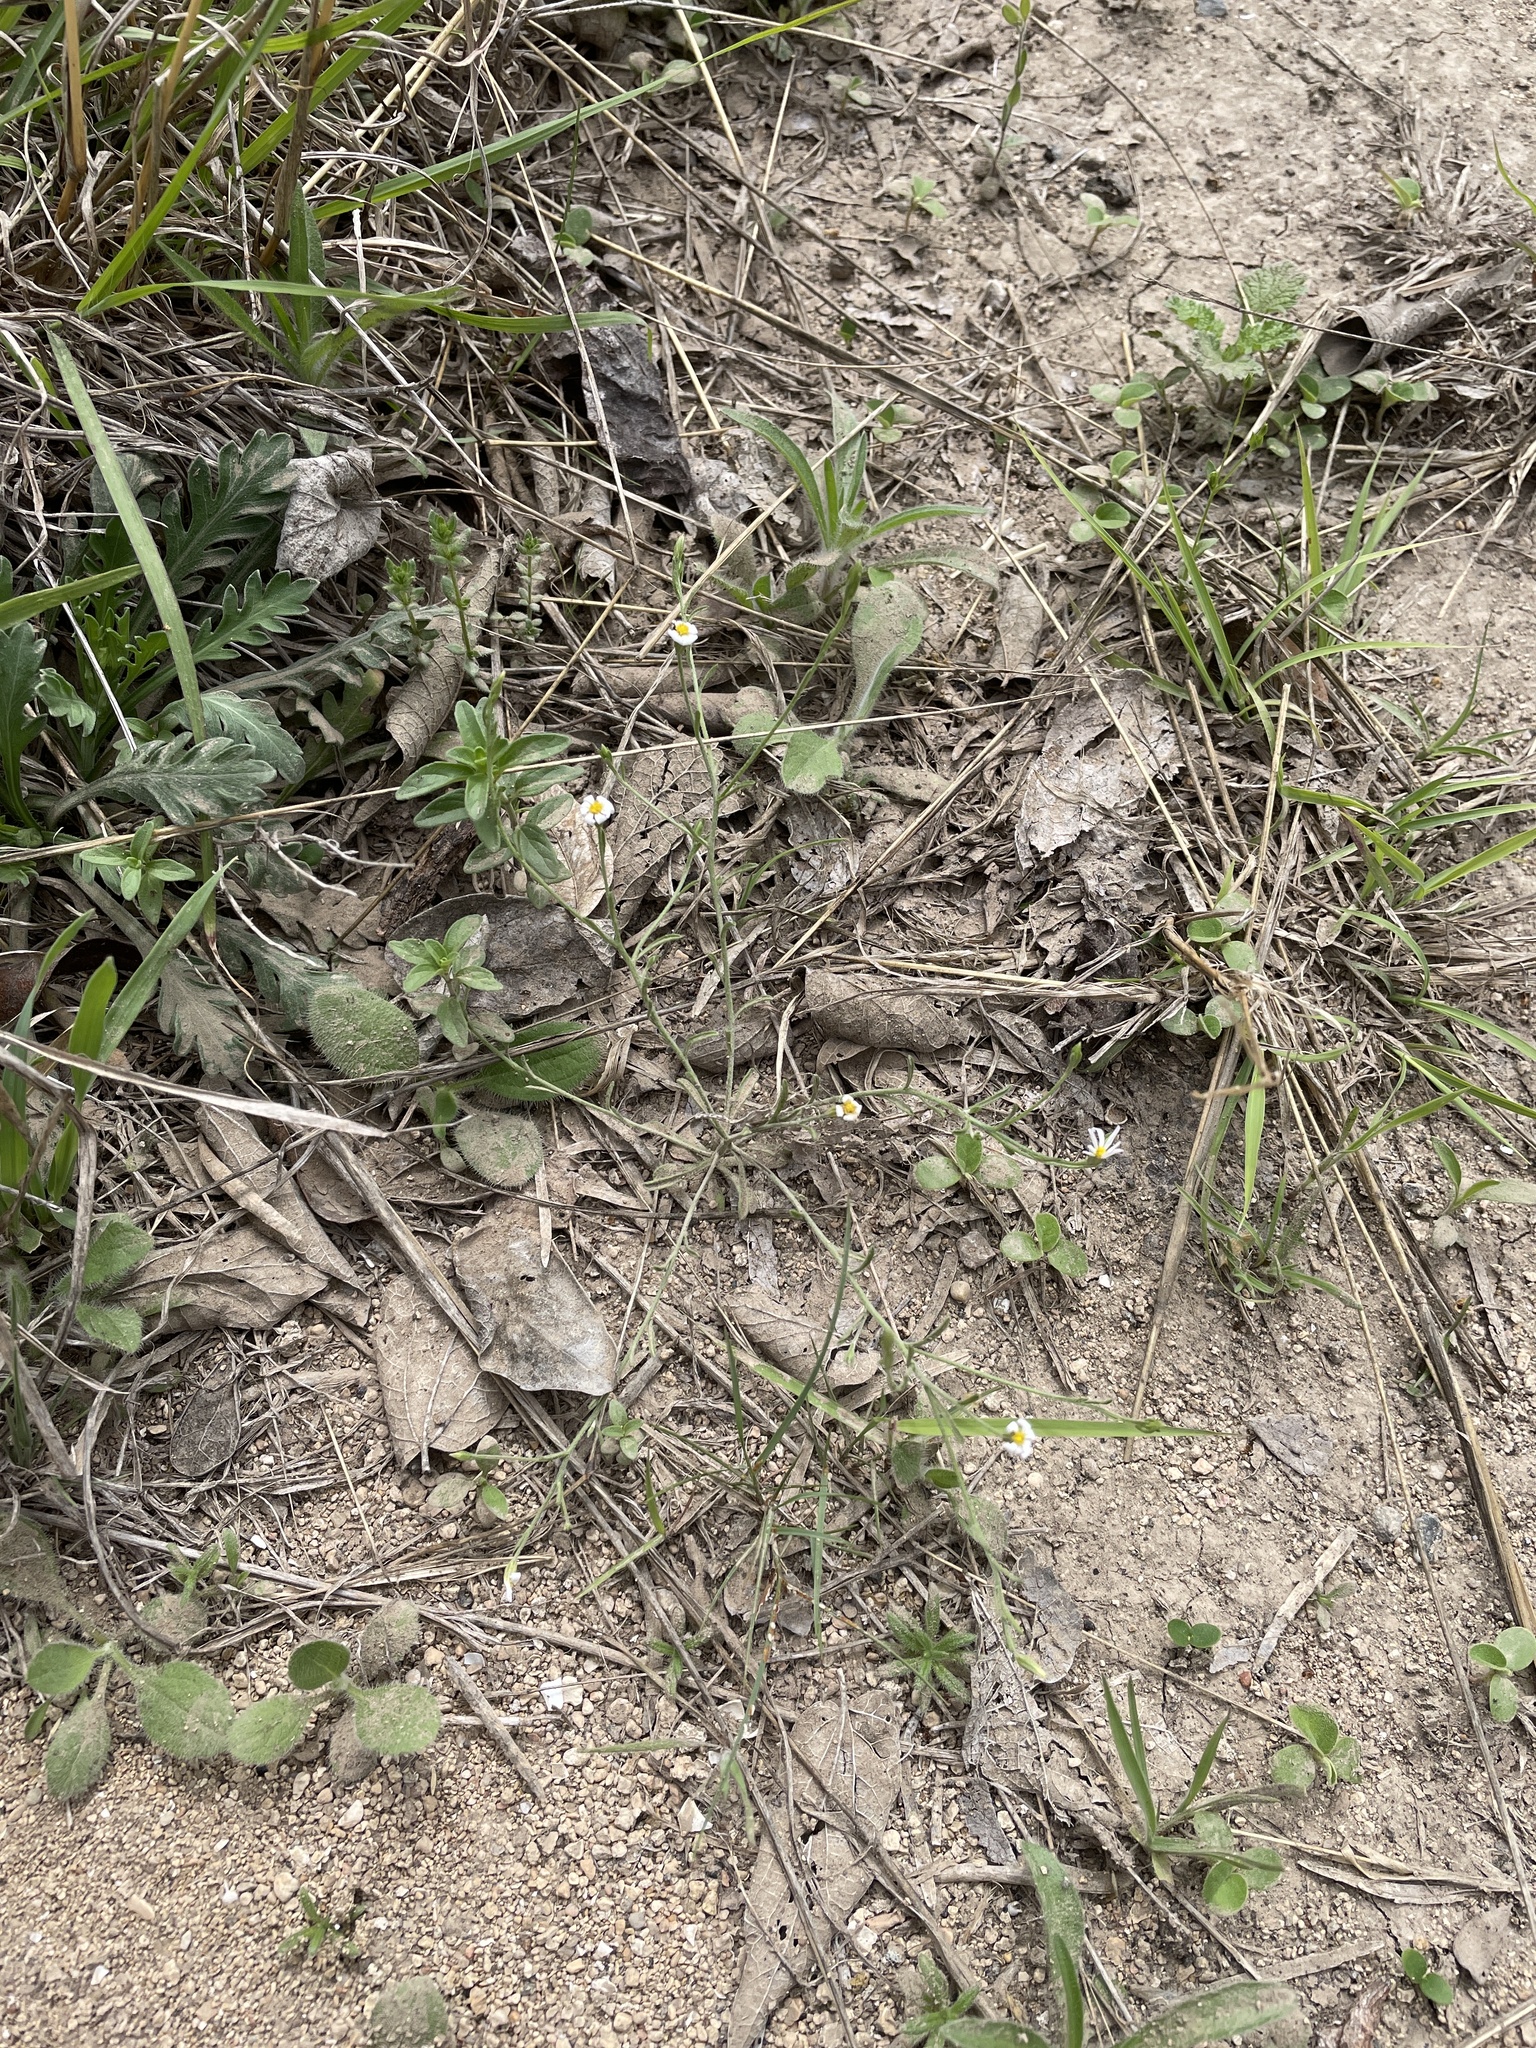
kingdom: Plantae
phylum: Tracheophyta
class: Magnoliopsida
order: Asterales
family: Asteraceae
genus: Chaetopappa
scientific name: Chaetopappa asteroides
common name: Tiny lazy daisy
